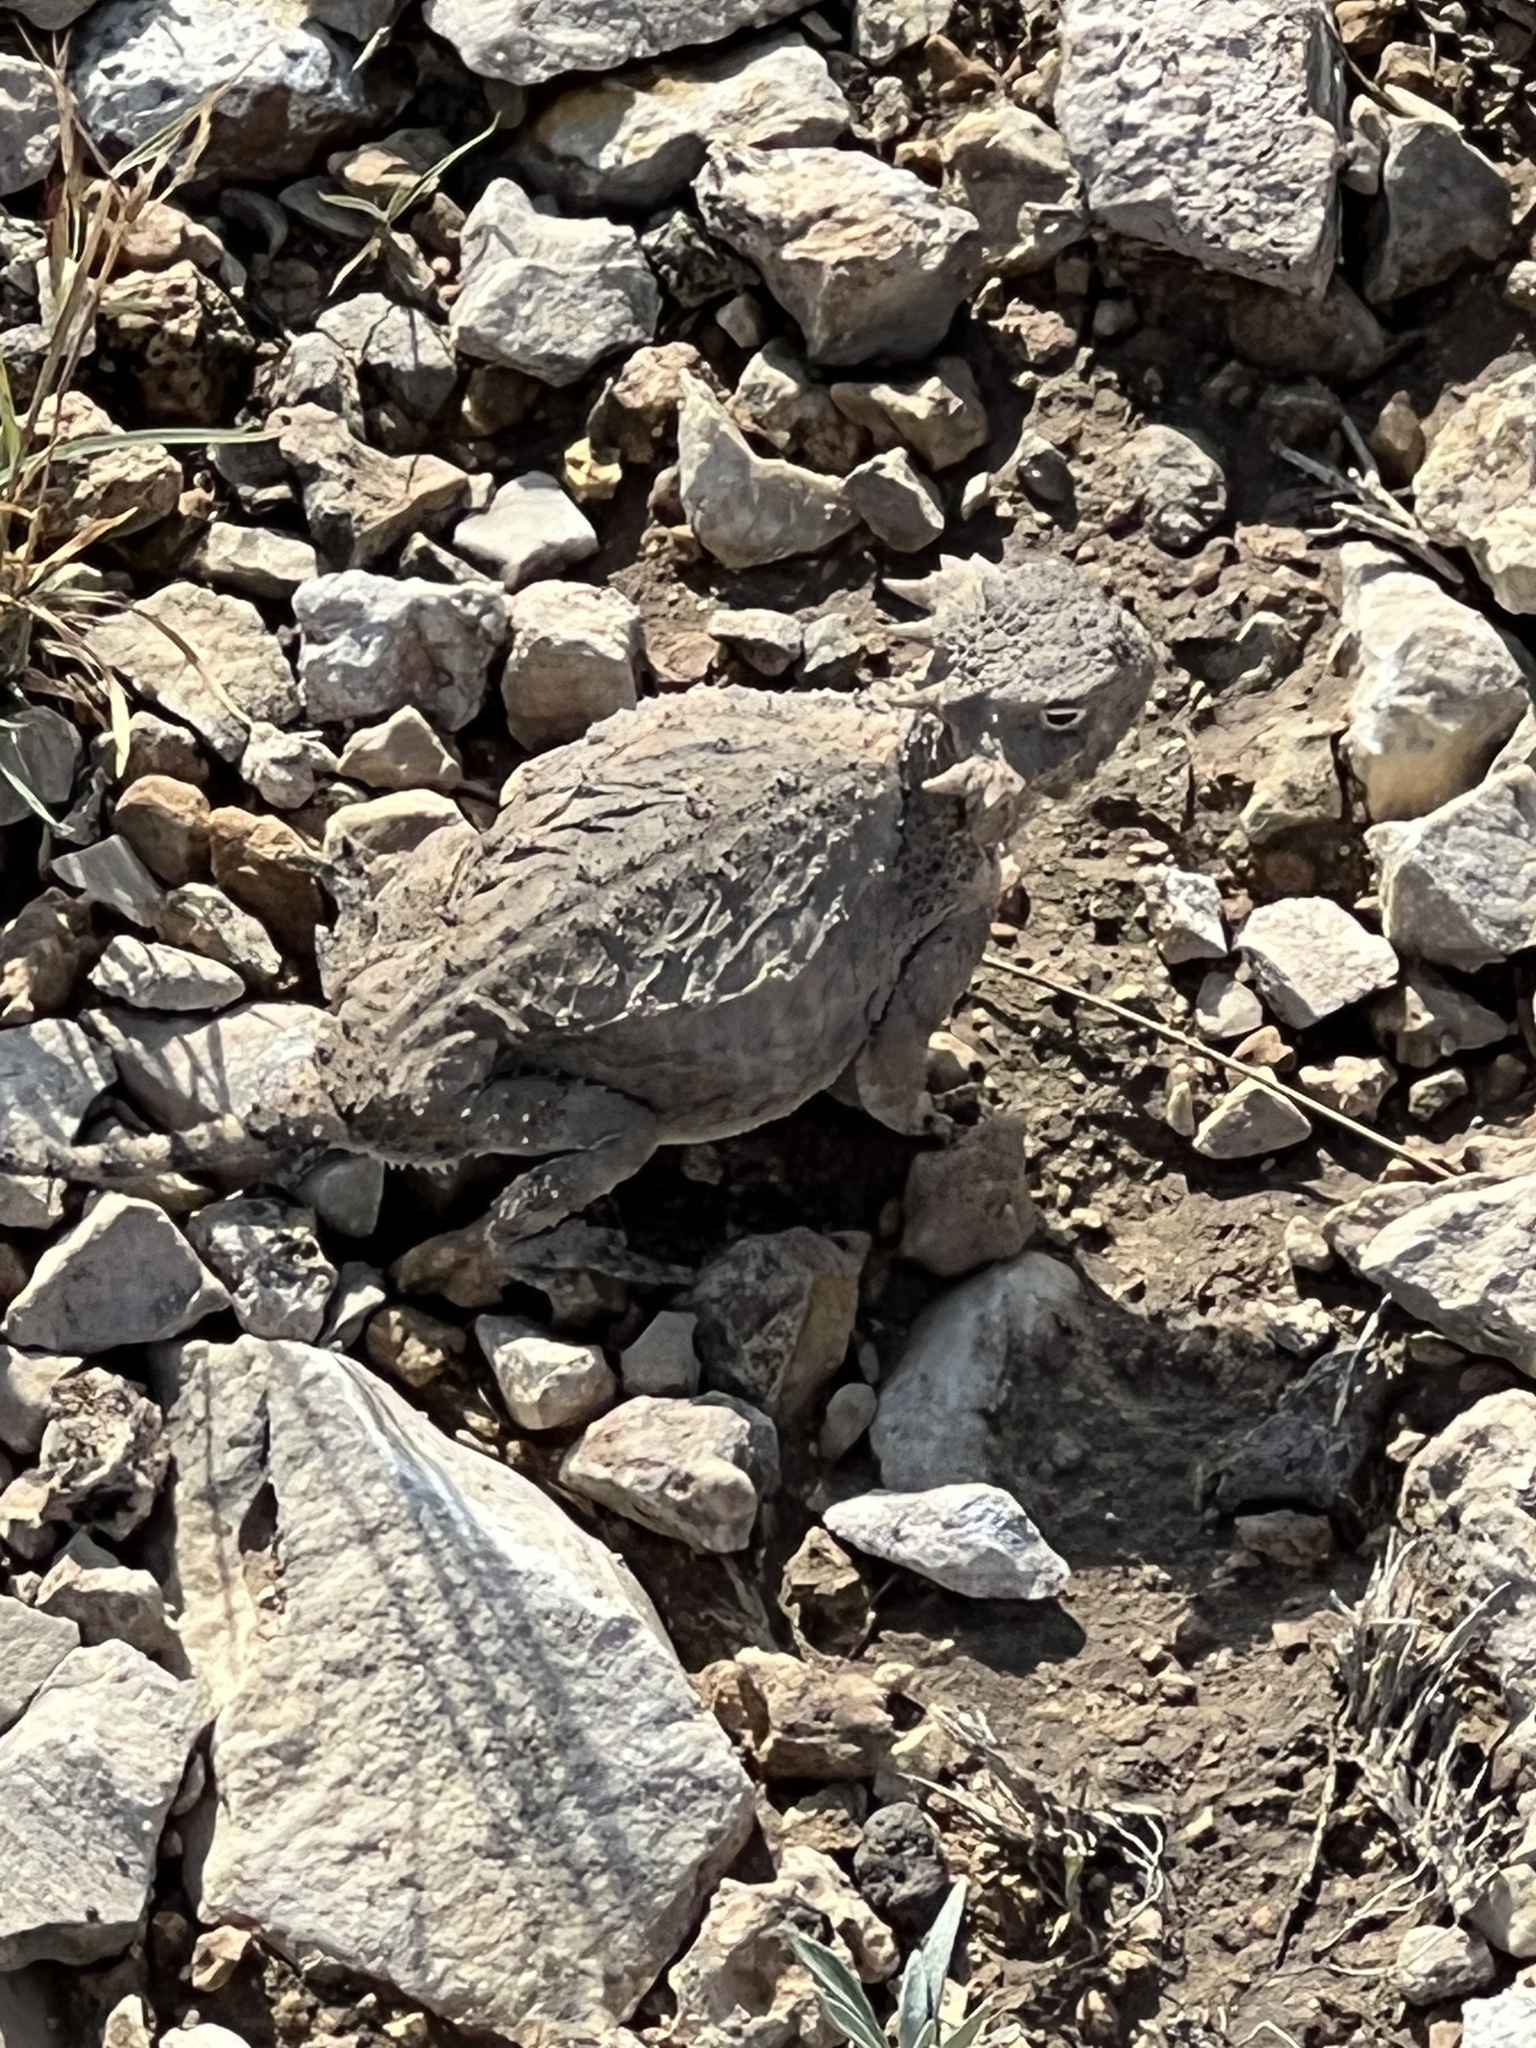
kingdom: Animalia
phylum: Chordata
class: Squamata
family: Phrynosomatidae
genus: Phrynosoma
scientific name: Phrynosoma modestum
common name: Roundtail horned lizard
